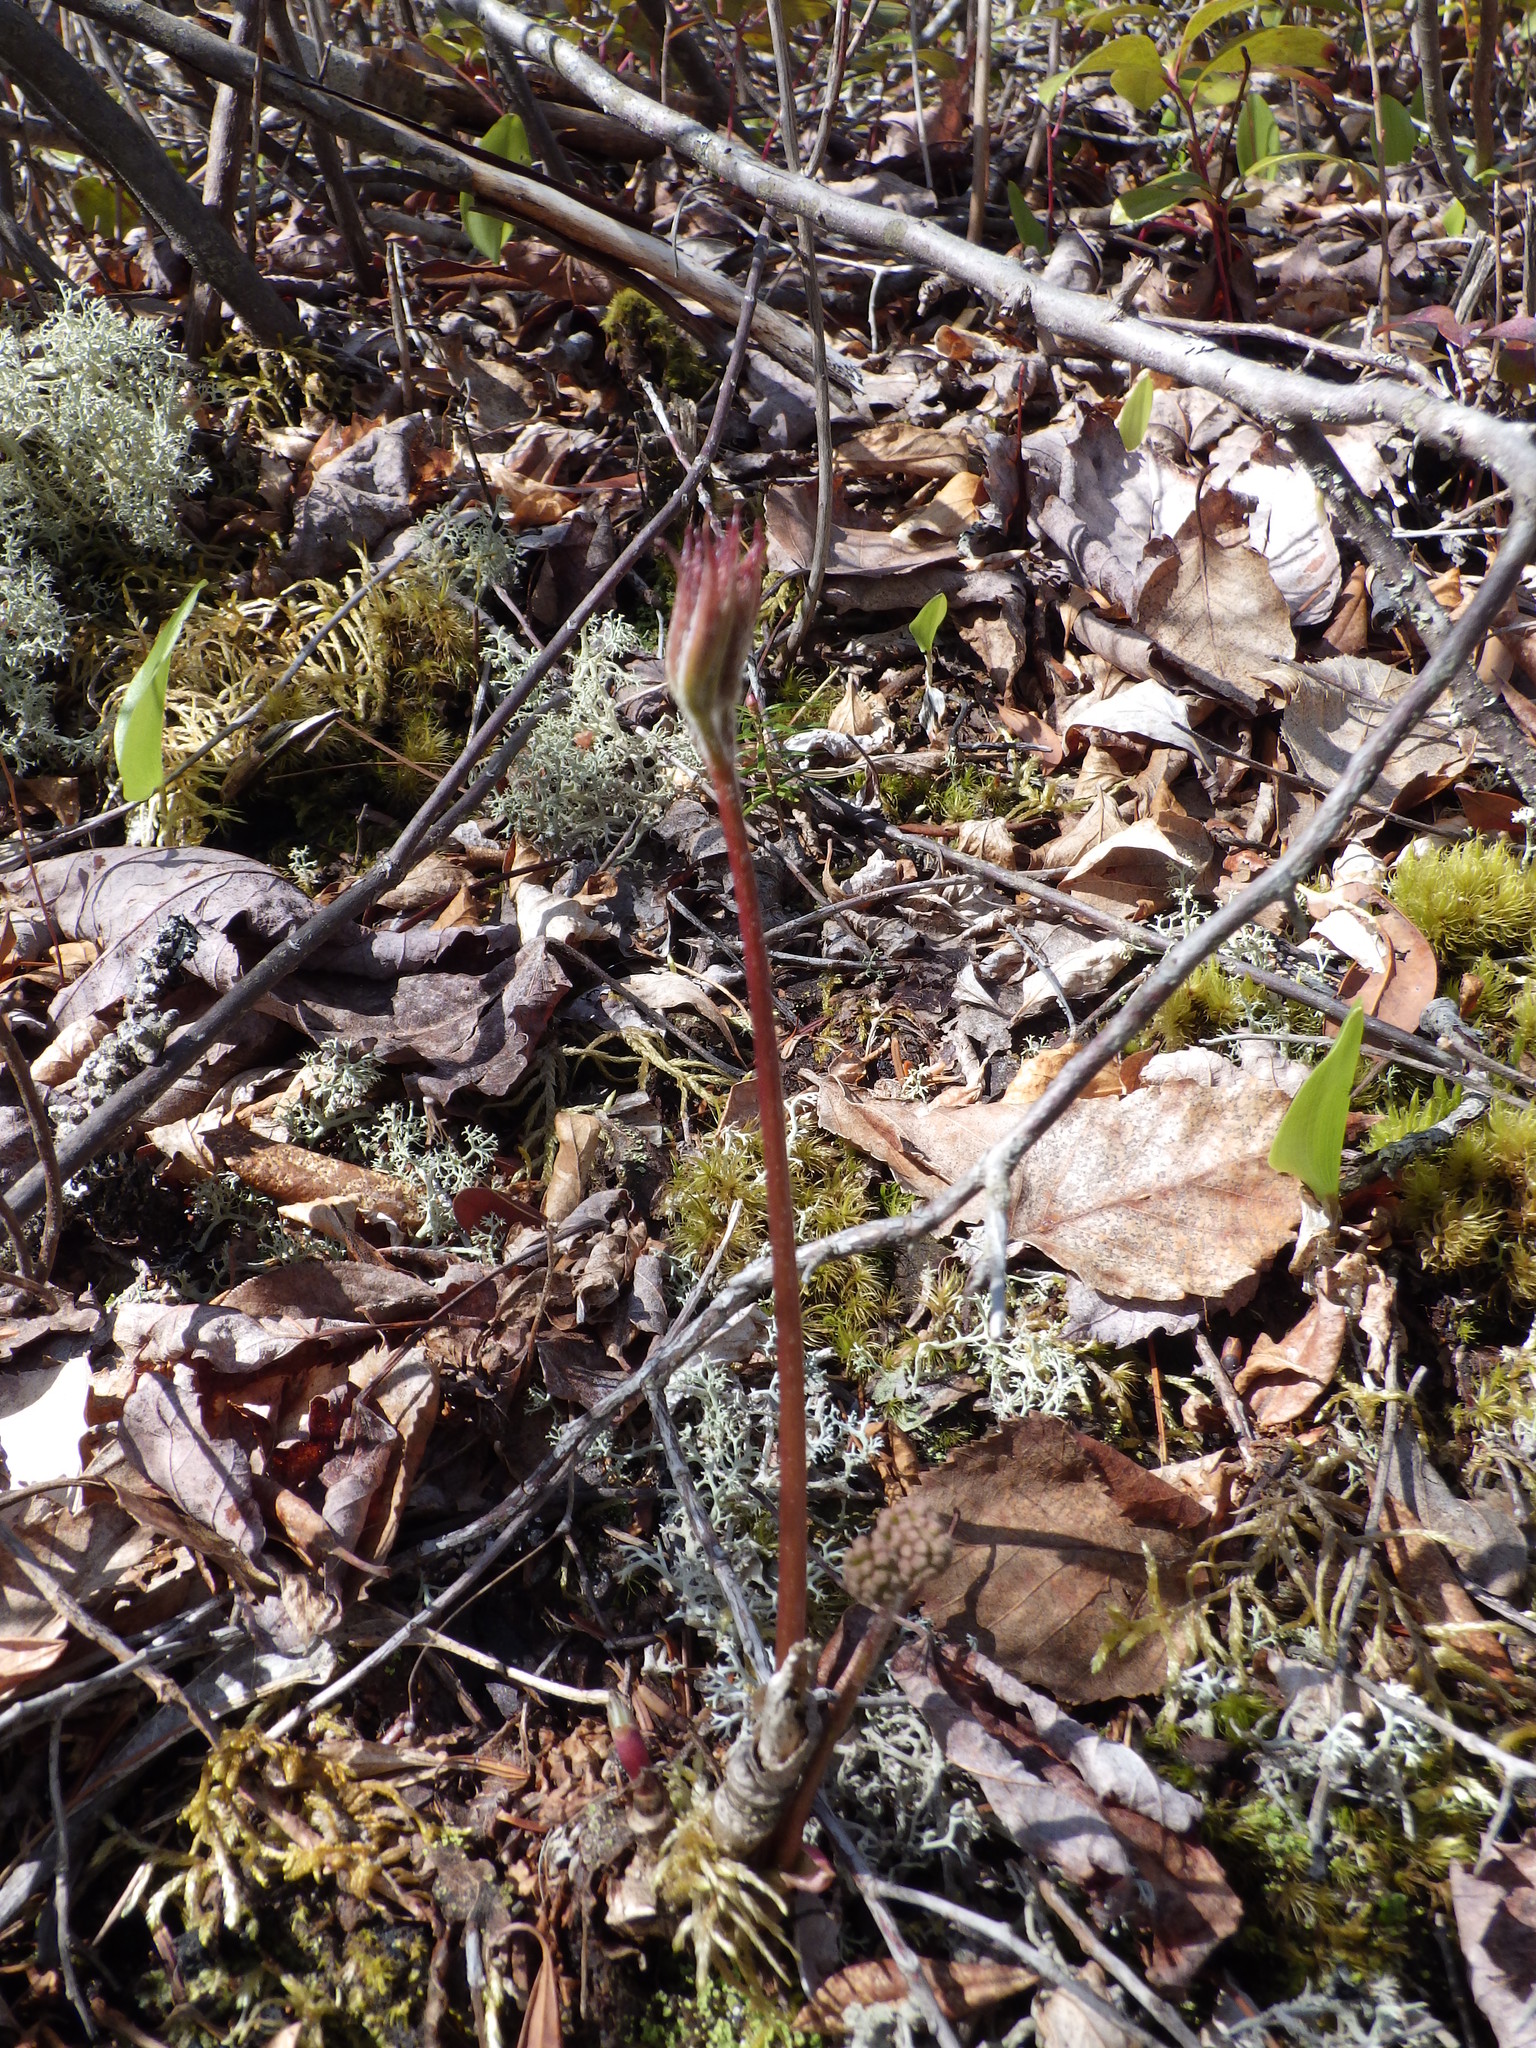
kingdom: Plantae
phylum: Tracheophyta
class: Magnoliopsida
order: Apiales
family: Araliaceae
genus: Aralia
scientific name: Aralia nudicaulis
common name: Wild sarsaparilla
